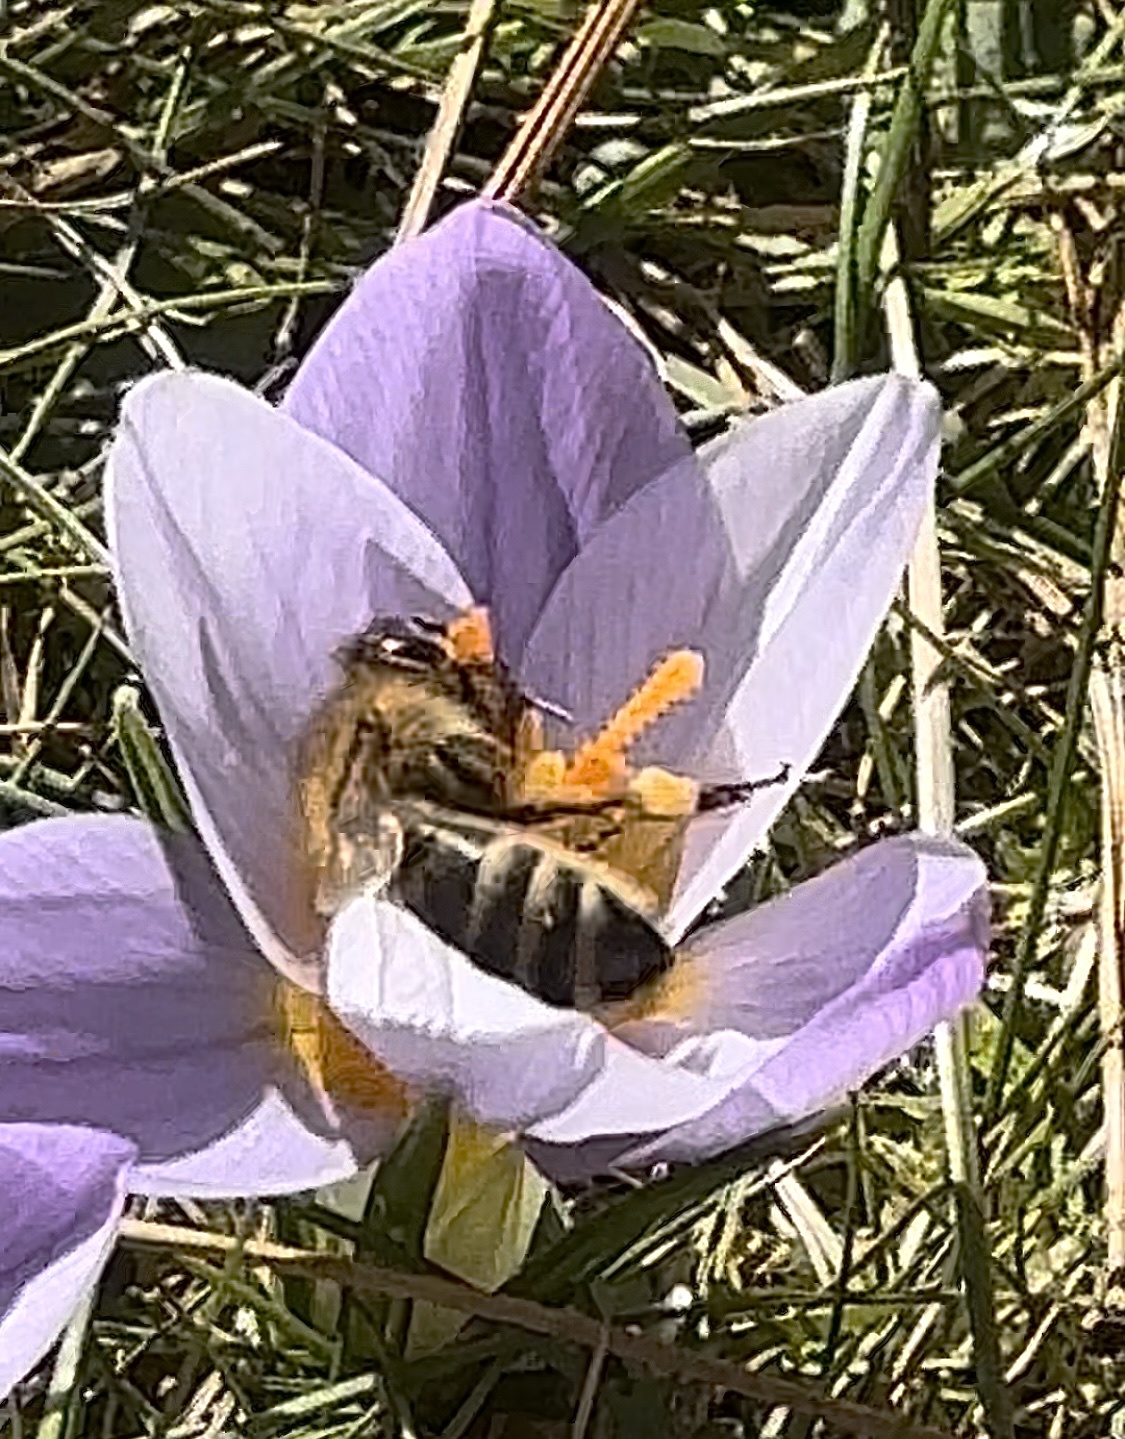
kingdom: Animalia
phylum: Arthropoda
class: Insecta
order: Hymenoptera
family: Apidae
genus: Apis
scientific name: Apis mellifera
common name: Honey bee
